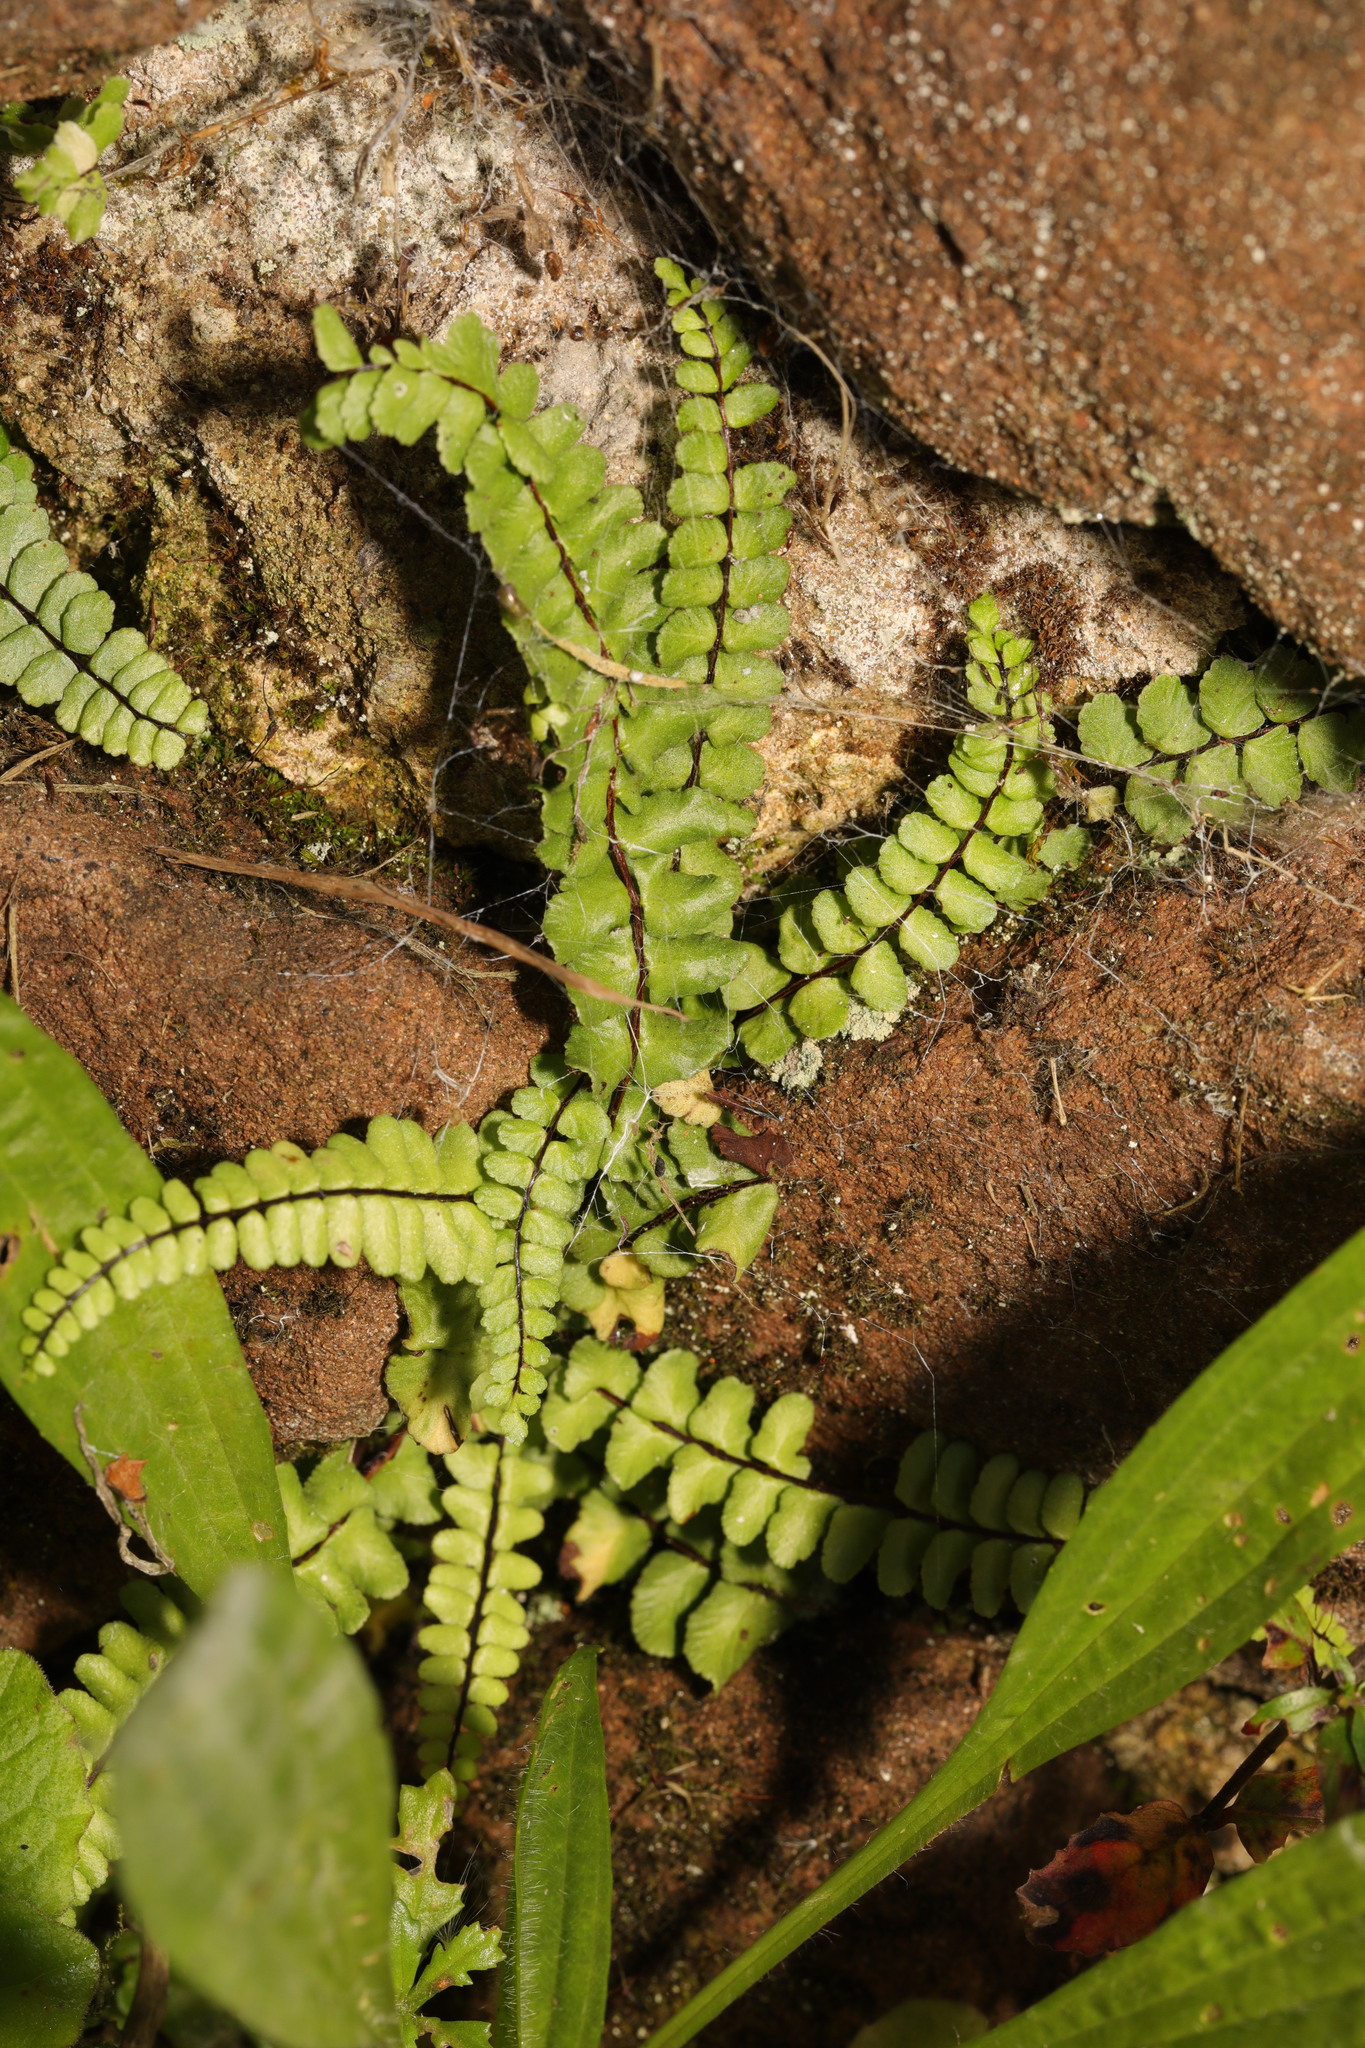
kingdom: Plantae
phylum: Tracheophyta
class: Polypodiopsida
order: Polypodiales
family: Aspleniaceae
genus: Asplenium
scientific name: Asplenium quadrivalens
